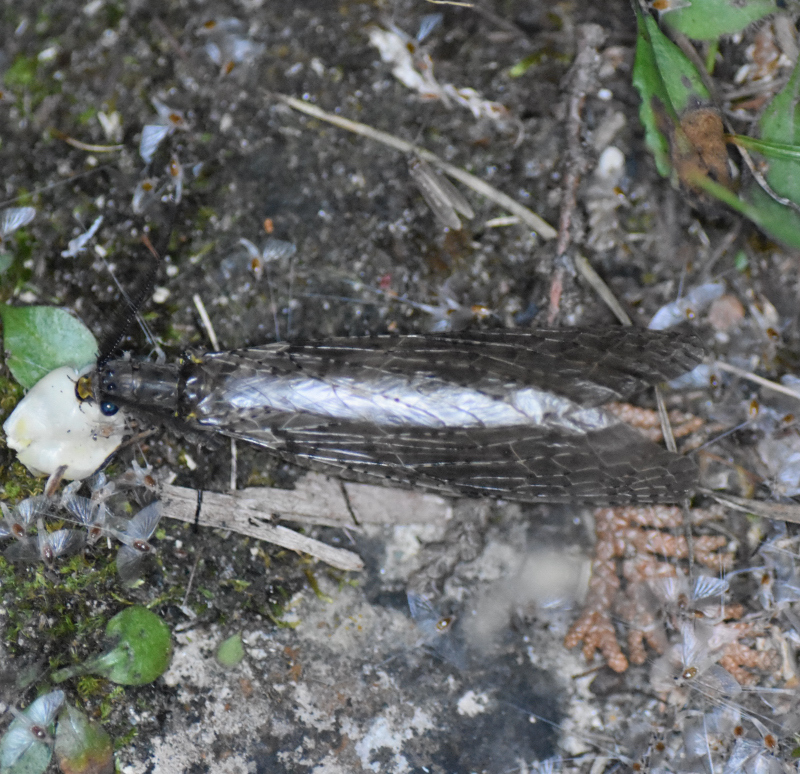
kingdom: Animalia
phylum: Arthropoda
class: Insecta
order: Megaloptera
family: Corydalidae
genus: Chauliodes
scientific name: Chauliodes pectinicornis
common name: Summer fishfly
